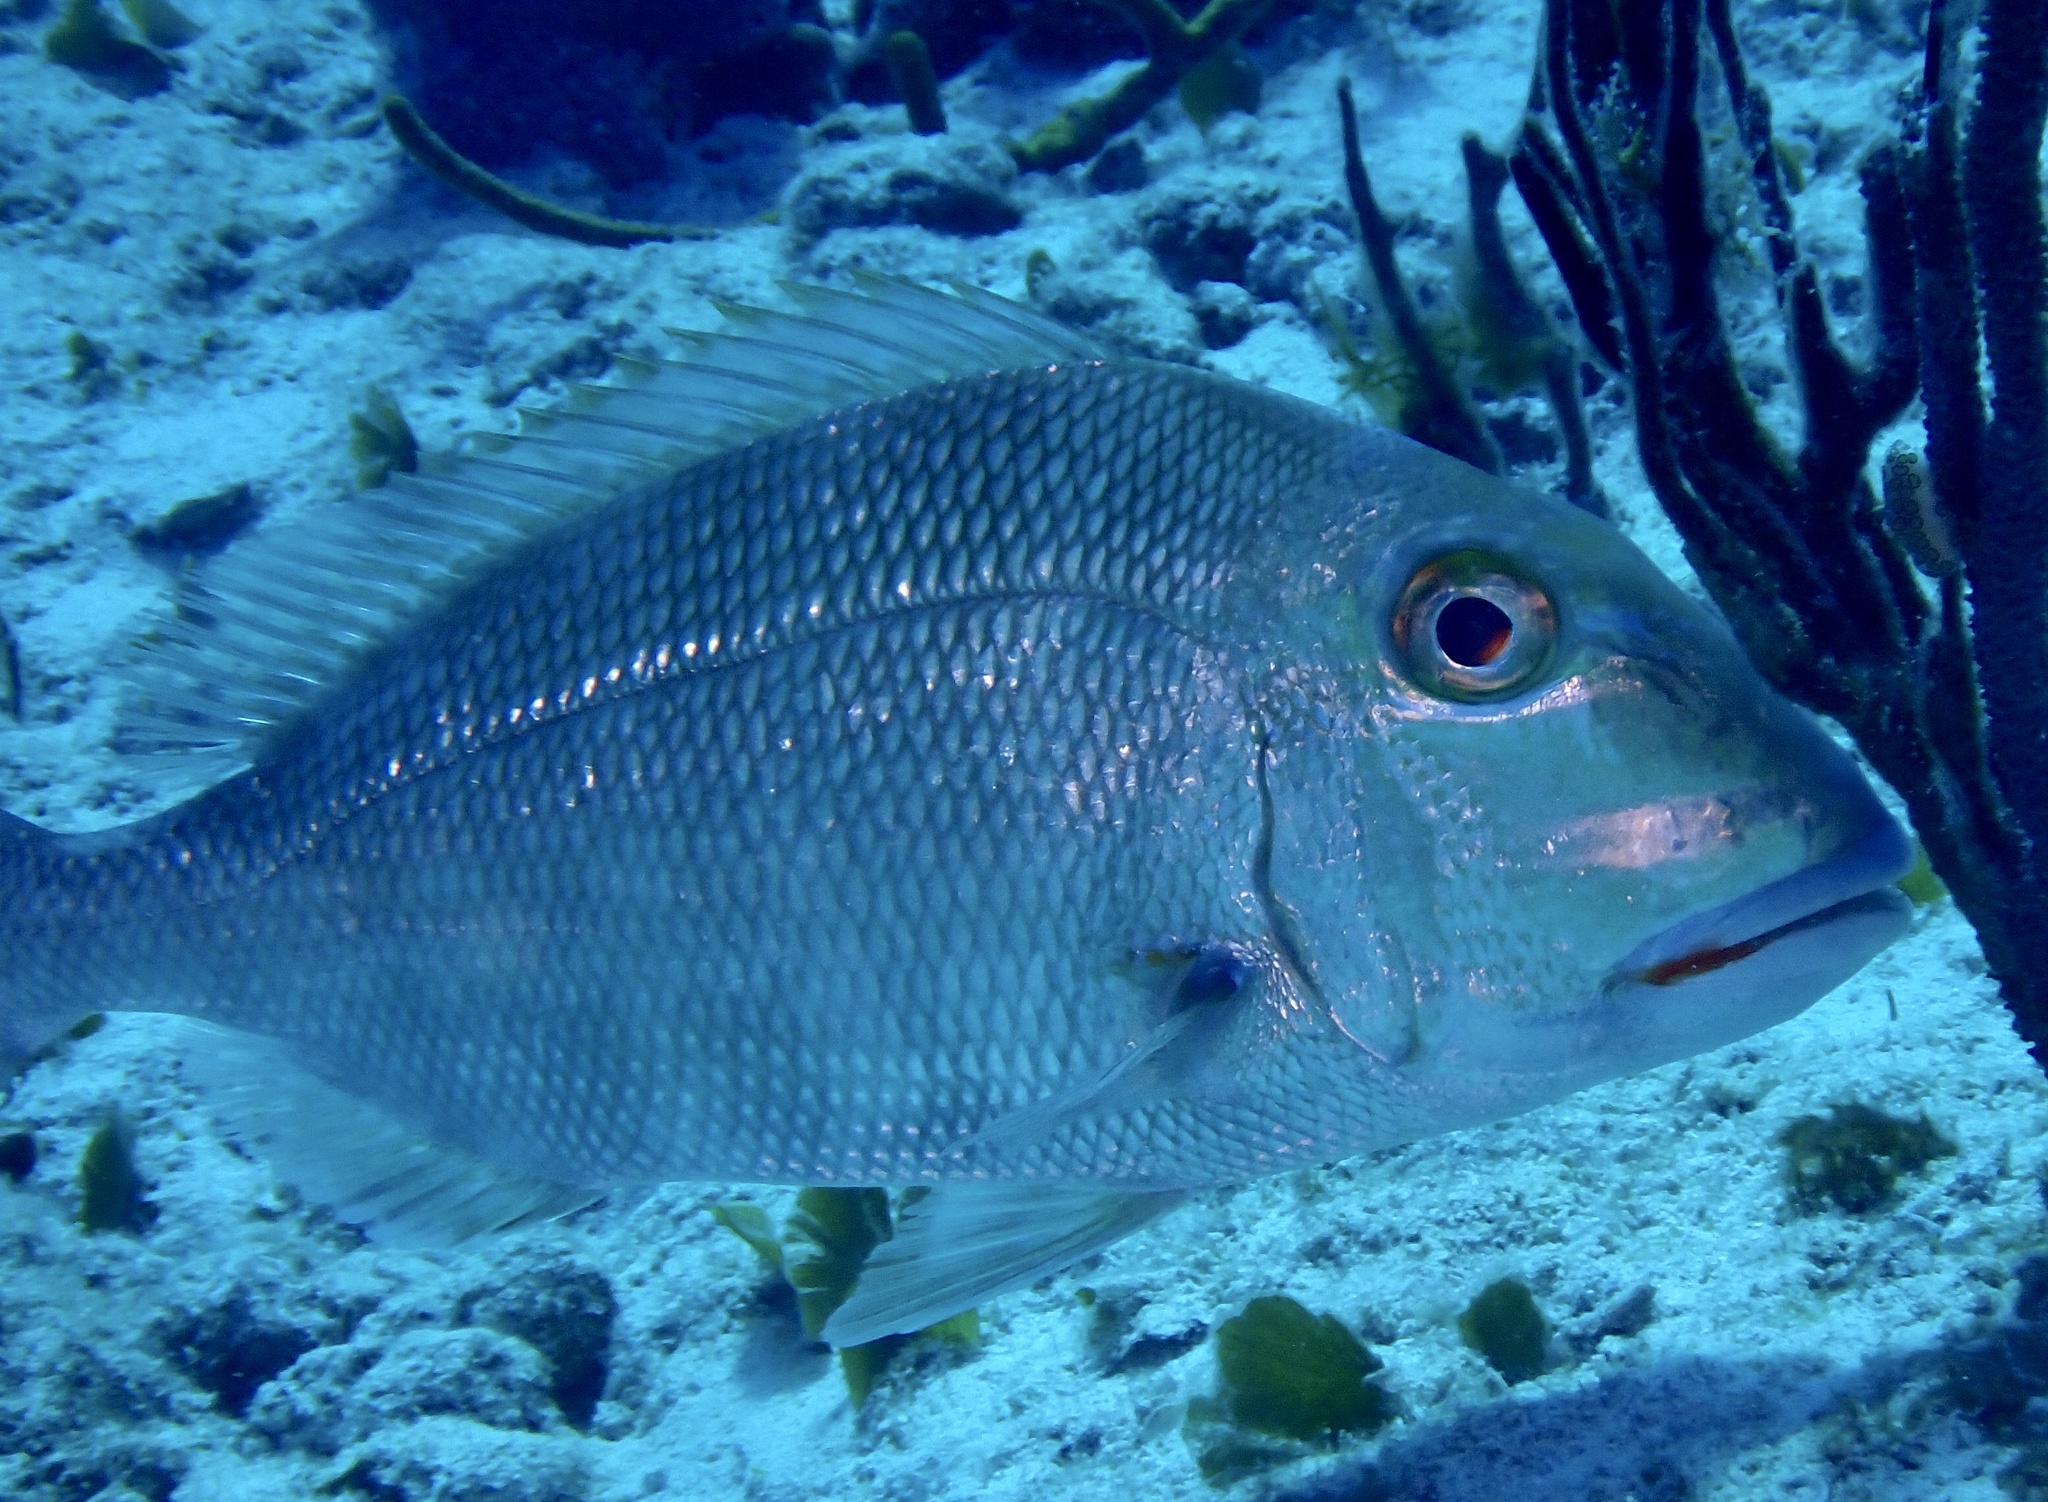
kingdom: Animalia
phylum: Chordata
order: Perciformes
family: Sparidae
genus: Calamus
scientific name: Calamus bajonado
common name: Jolthead porgy
